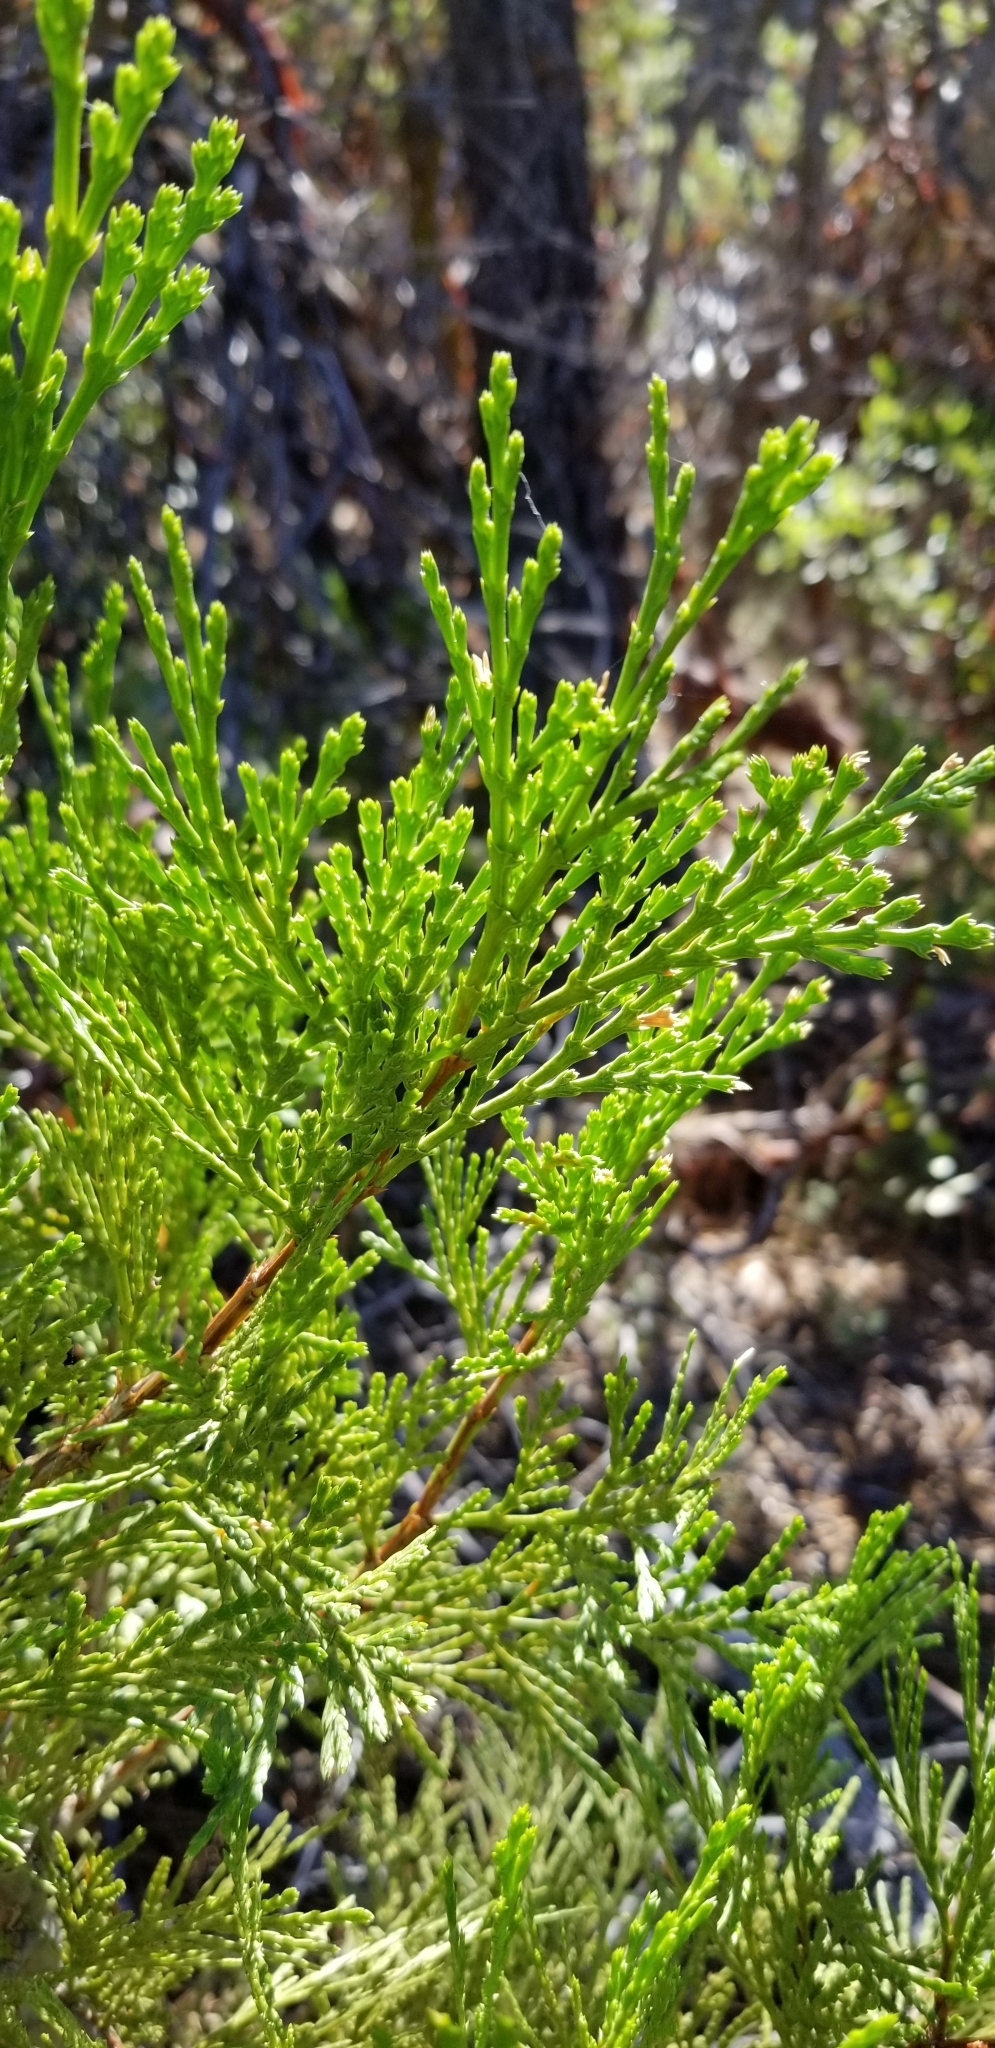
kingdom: Plantae
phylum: Tracheophyta
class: Pinopsida
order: Pinales
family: Cupressaceae
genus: Calocedrus
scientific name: Calocedrus decurrens
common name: Californian incense-cedar
